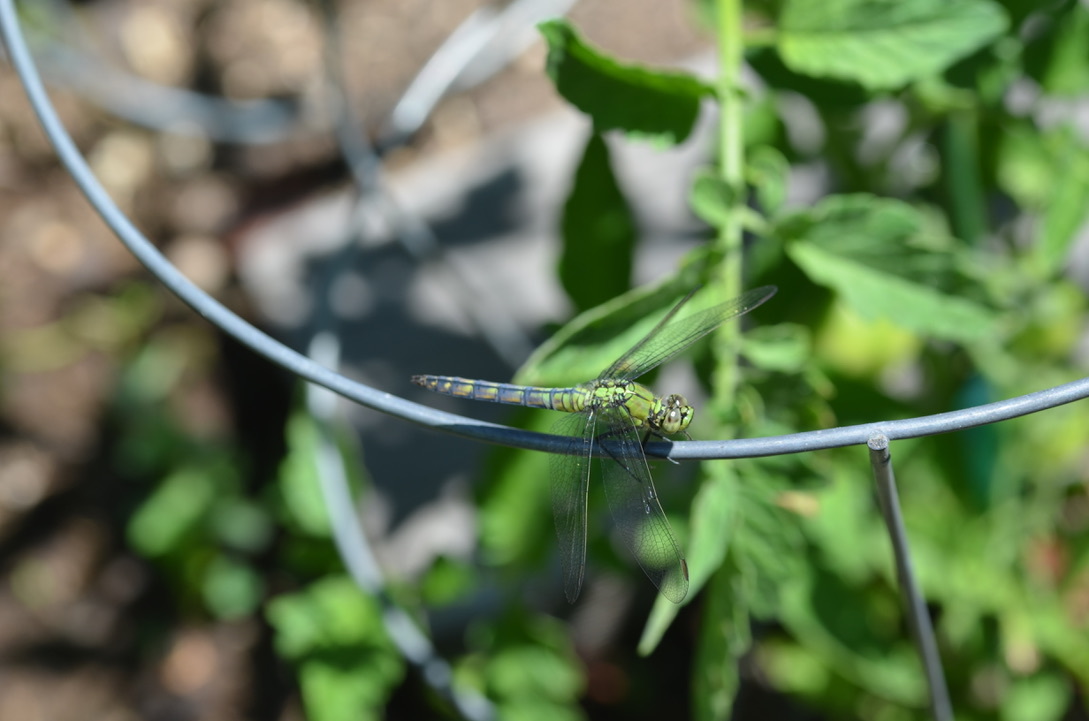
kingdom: Animalia
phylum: Arthropoda
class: Insecta
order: Odonata
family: Libellulidae
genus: Erythemis
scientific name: Erythemis collocata
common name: Western pondhawk
